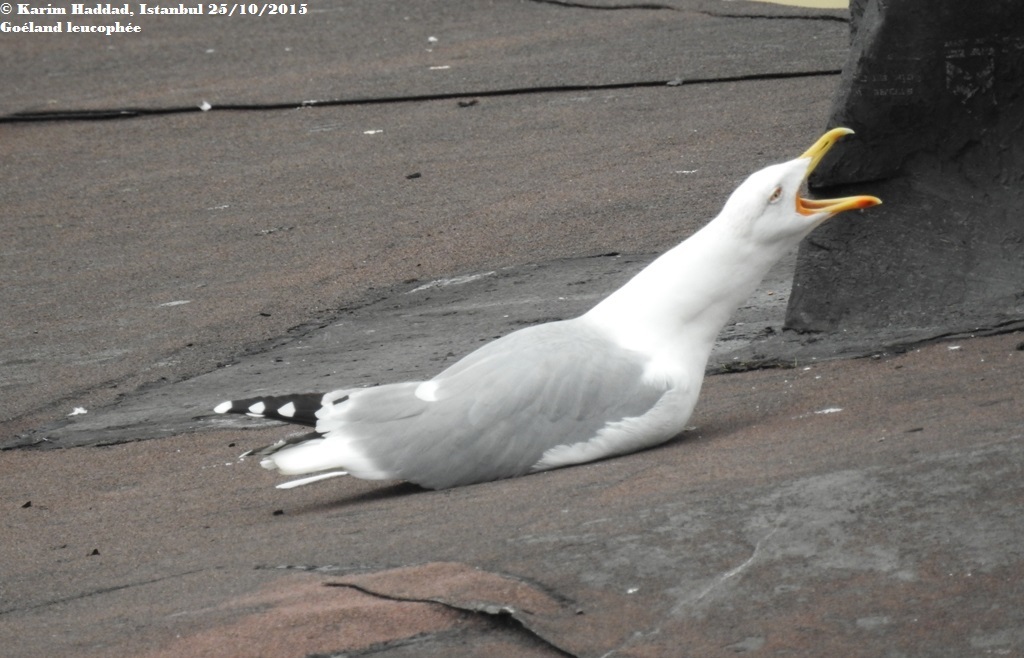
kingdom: Animalia
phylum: Chordata
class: Aves
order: Charadriiformes
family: Laridae
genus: Larus
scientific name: Larus michahellis
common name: Yellow-legged gull
